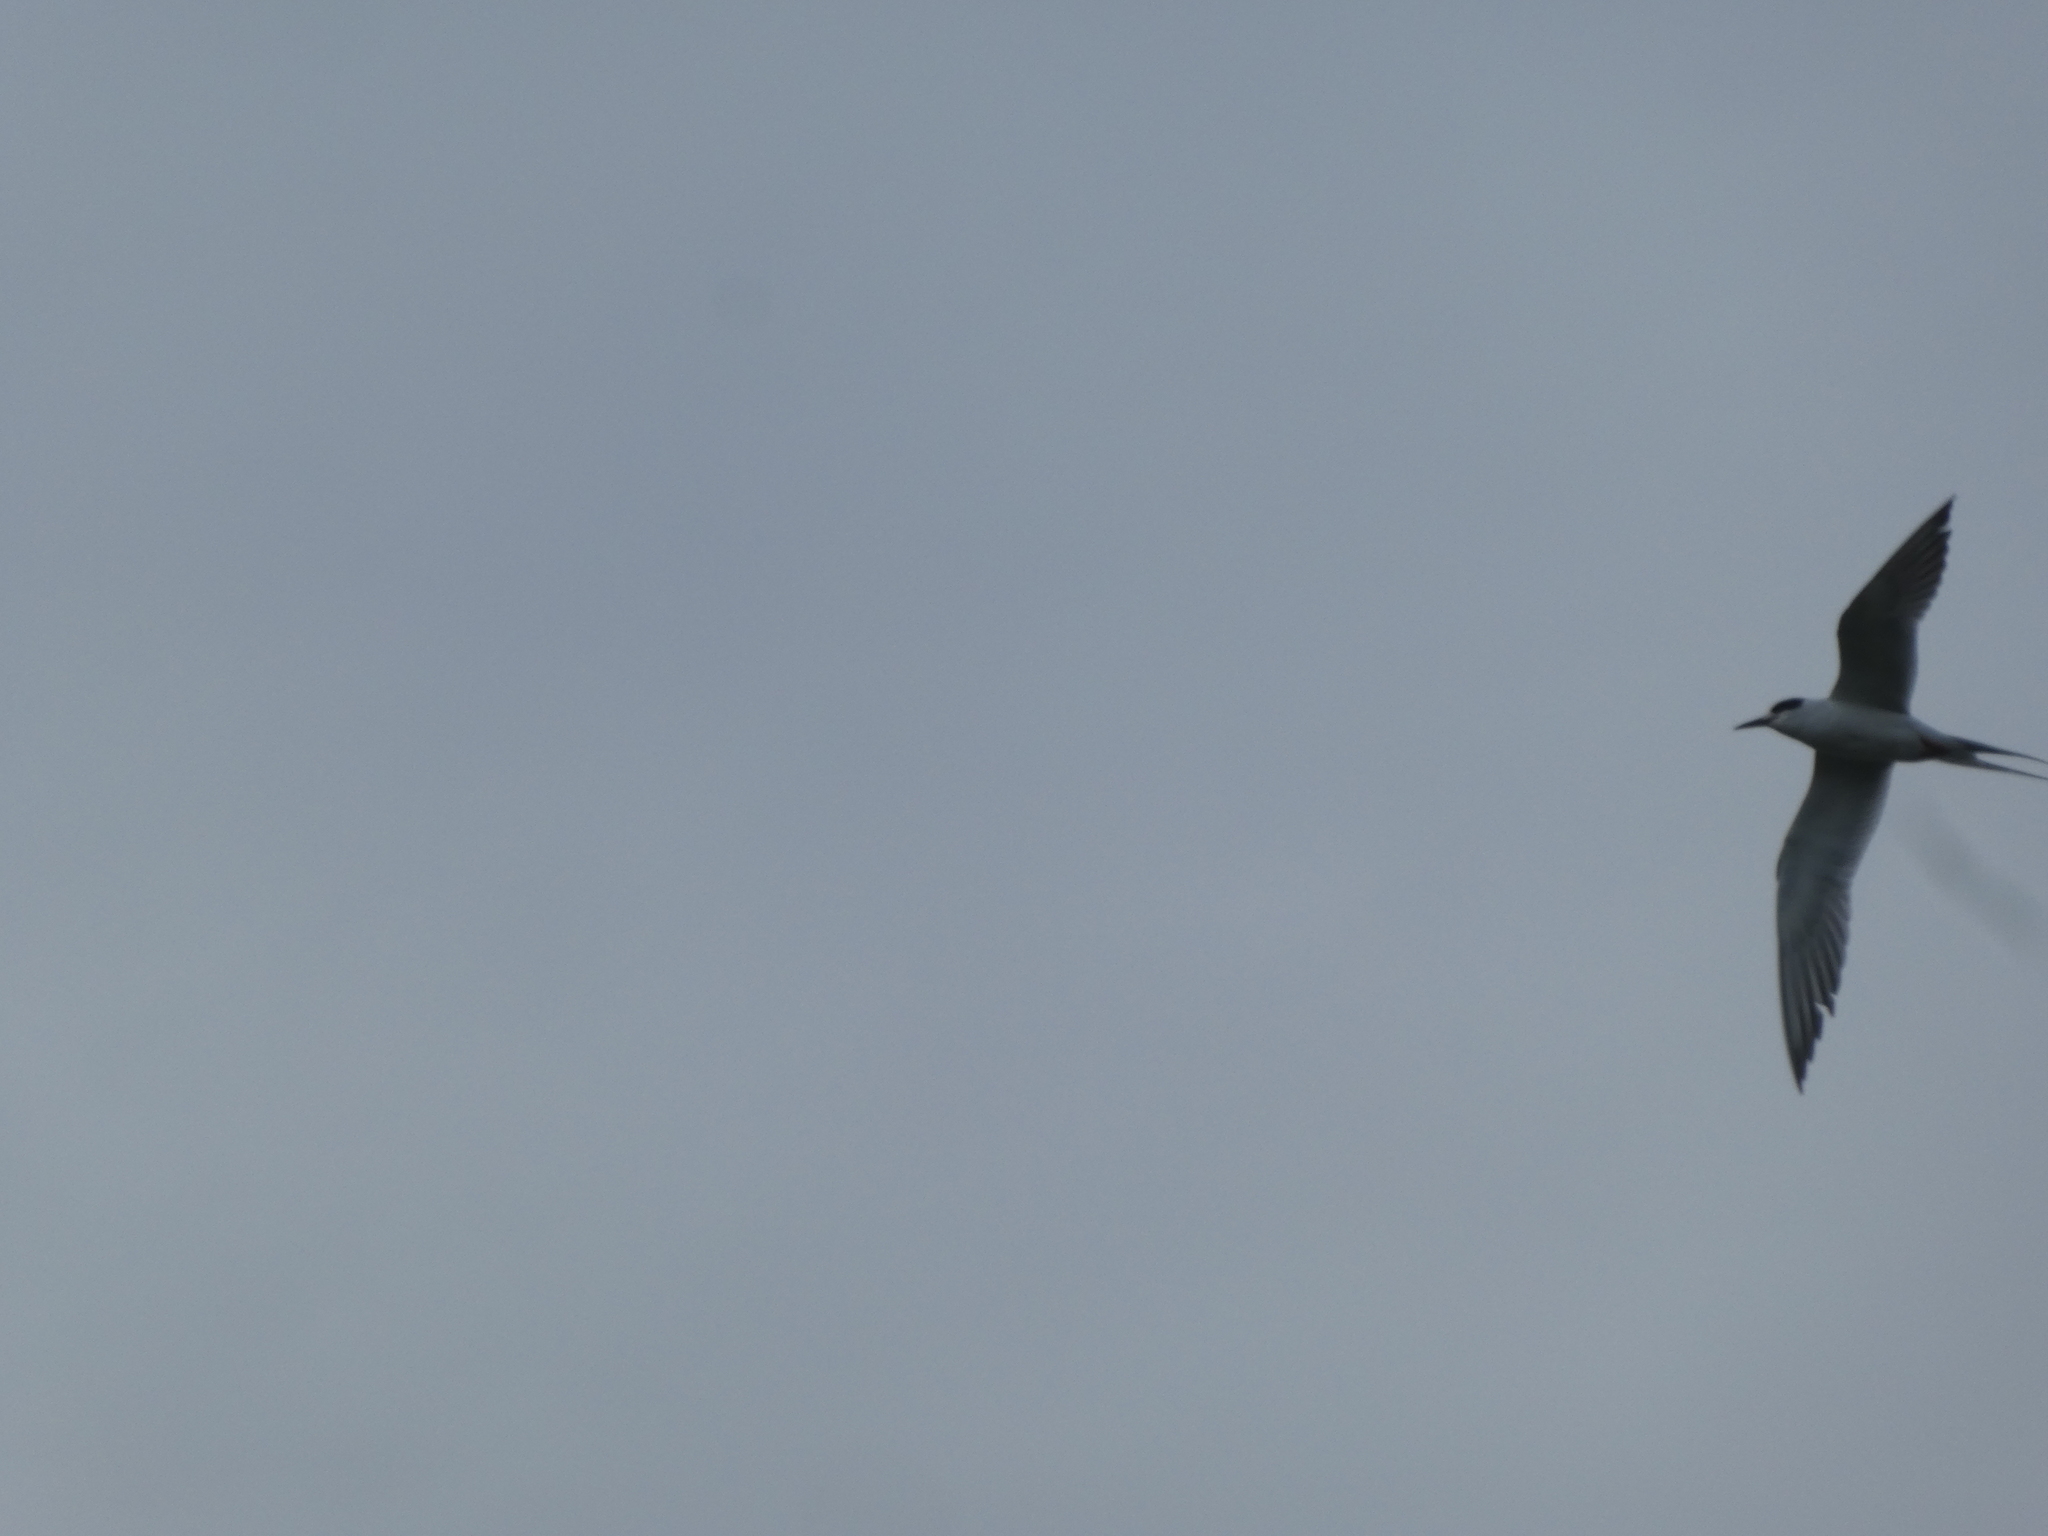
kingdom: Animalia
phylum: Chordata
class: Aves
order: Charadriiformes
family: Laridae
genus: Sterna
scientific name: Sterna forsteri
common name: Forster's tern
